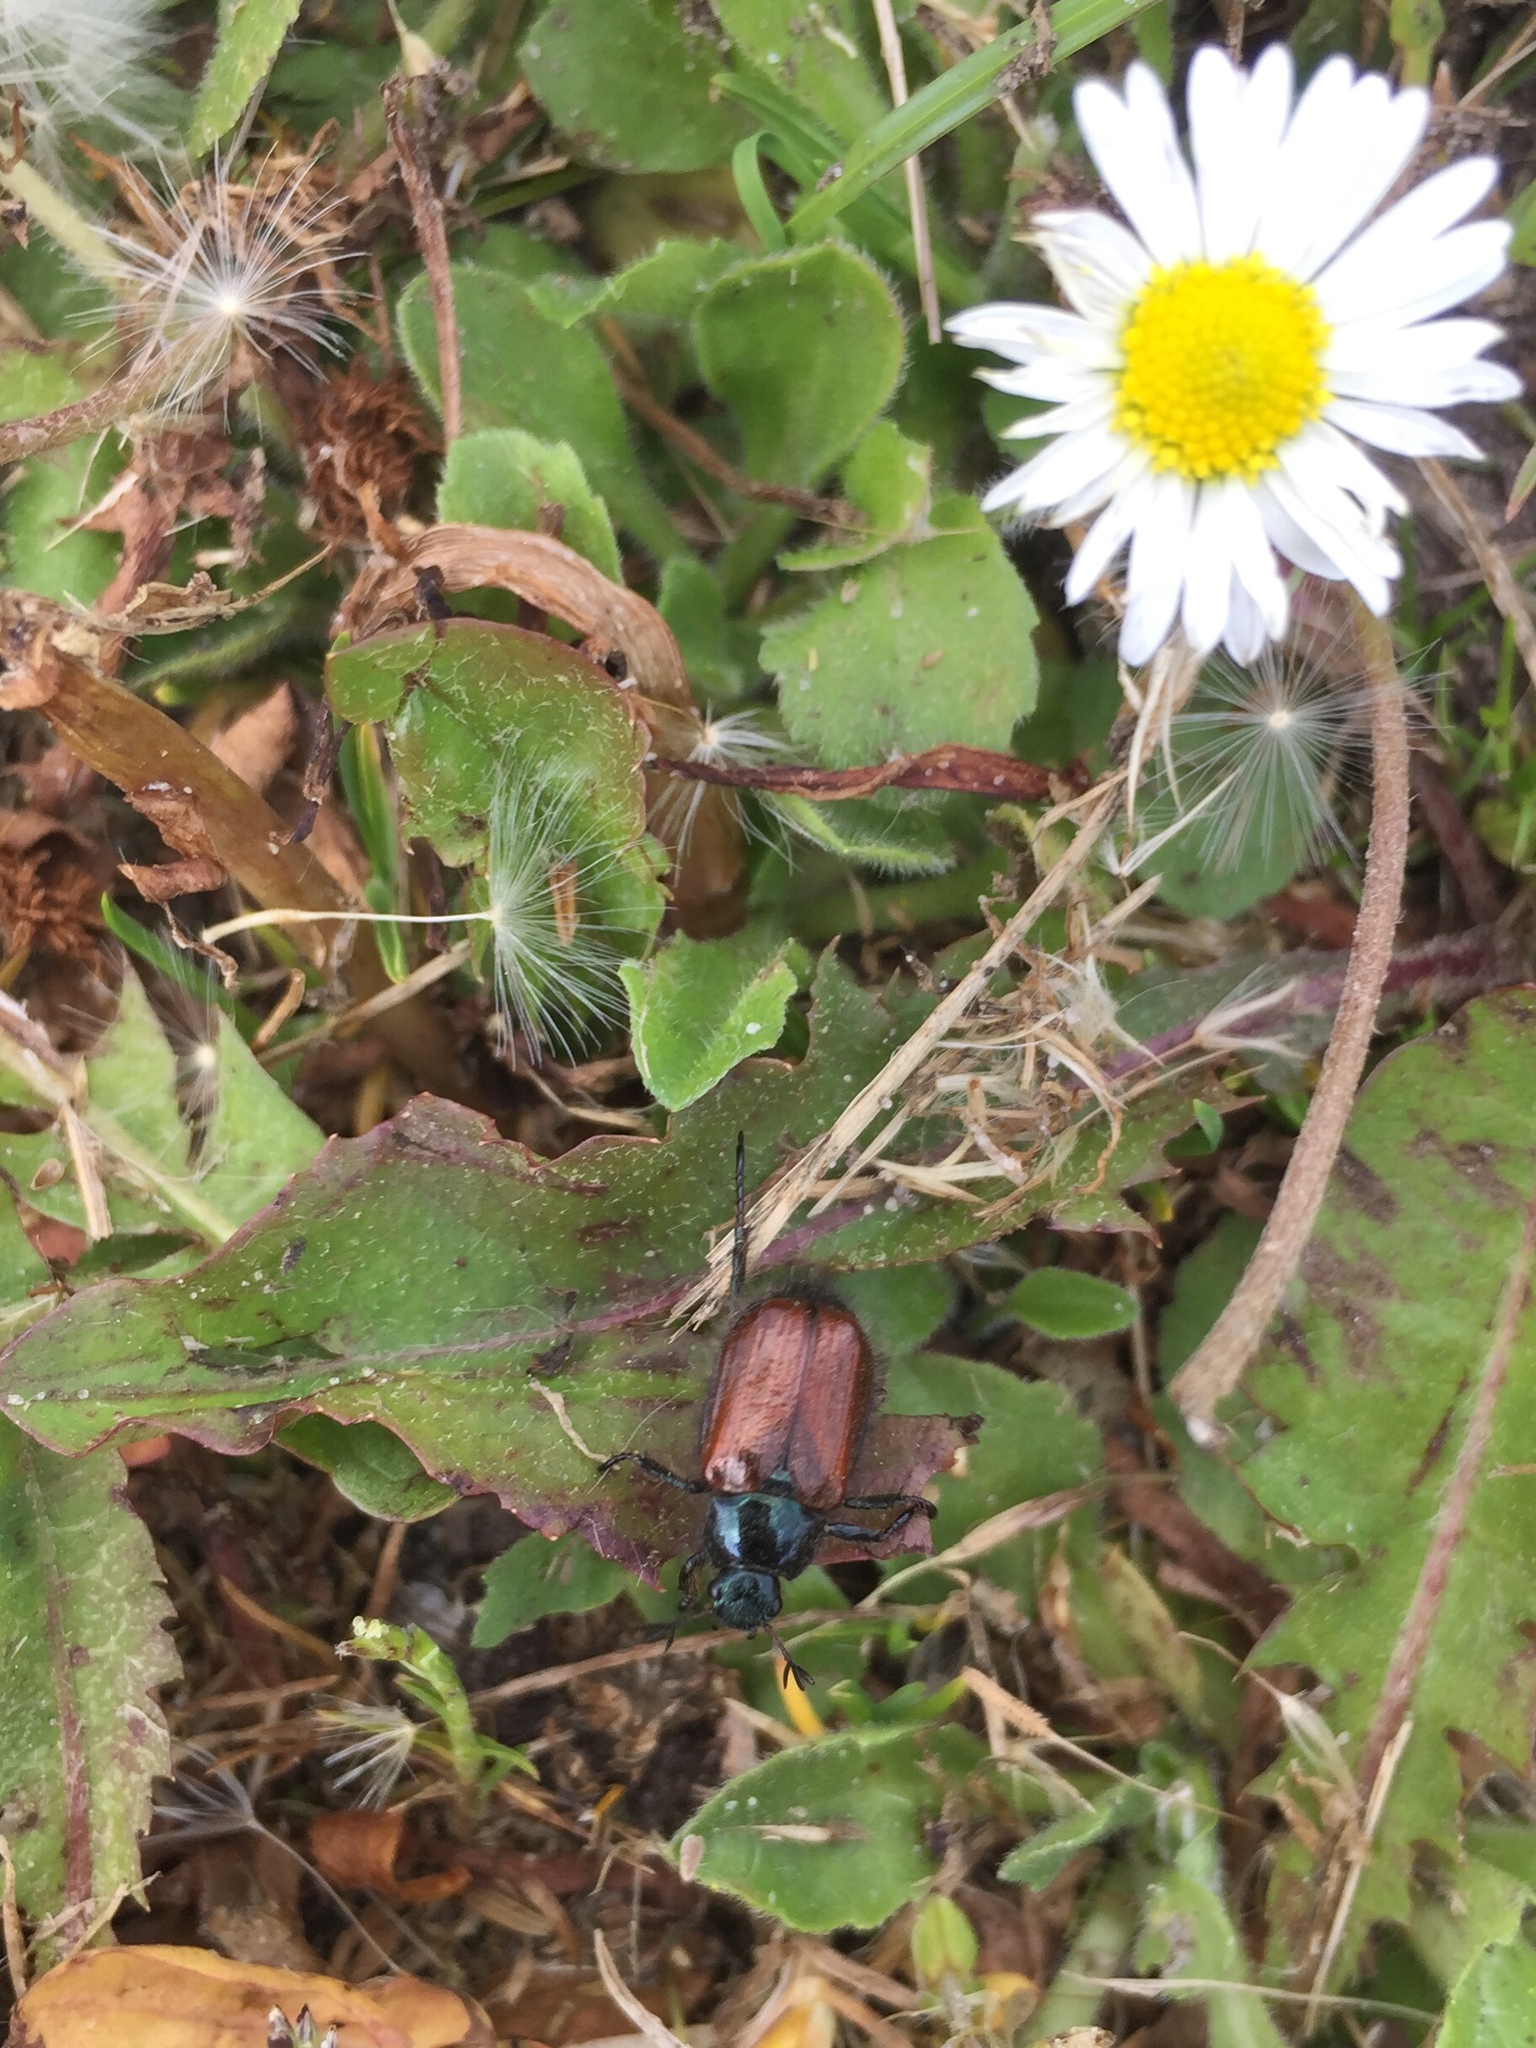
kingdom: Animalia
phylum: Arthropoda
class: Insecta
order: Coleoptera
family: Scarabaeidae
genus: Phyllopertha
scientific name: Phyllopertha horticola
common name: Garden chafer
